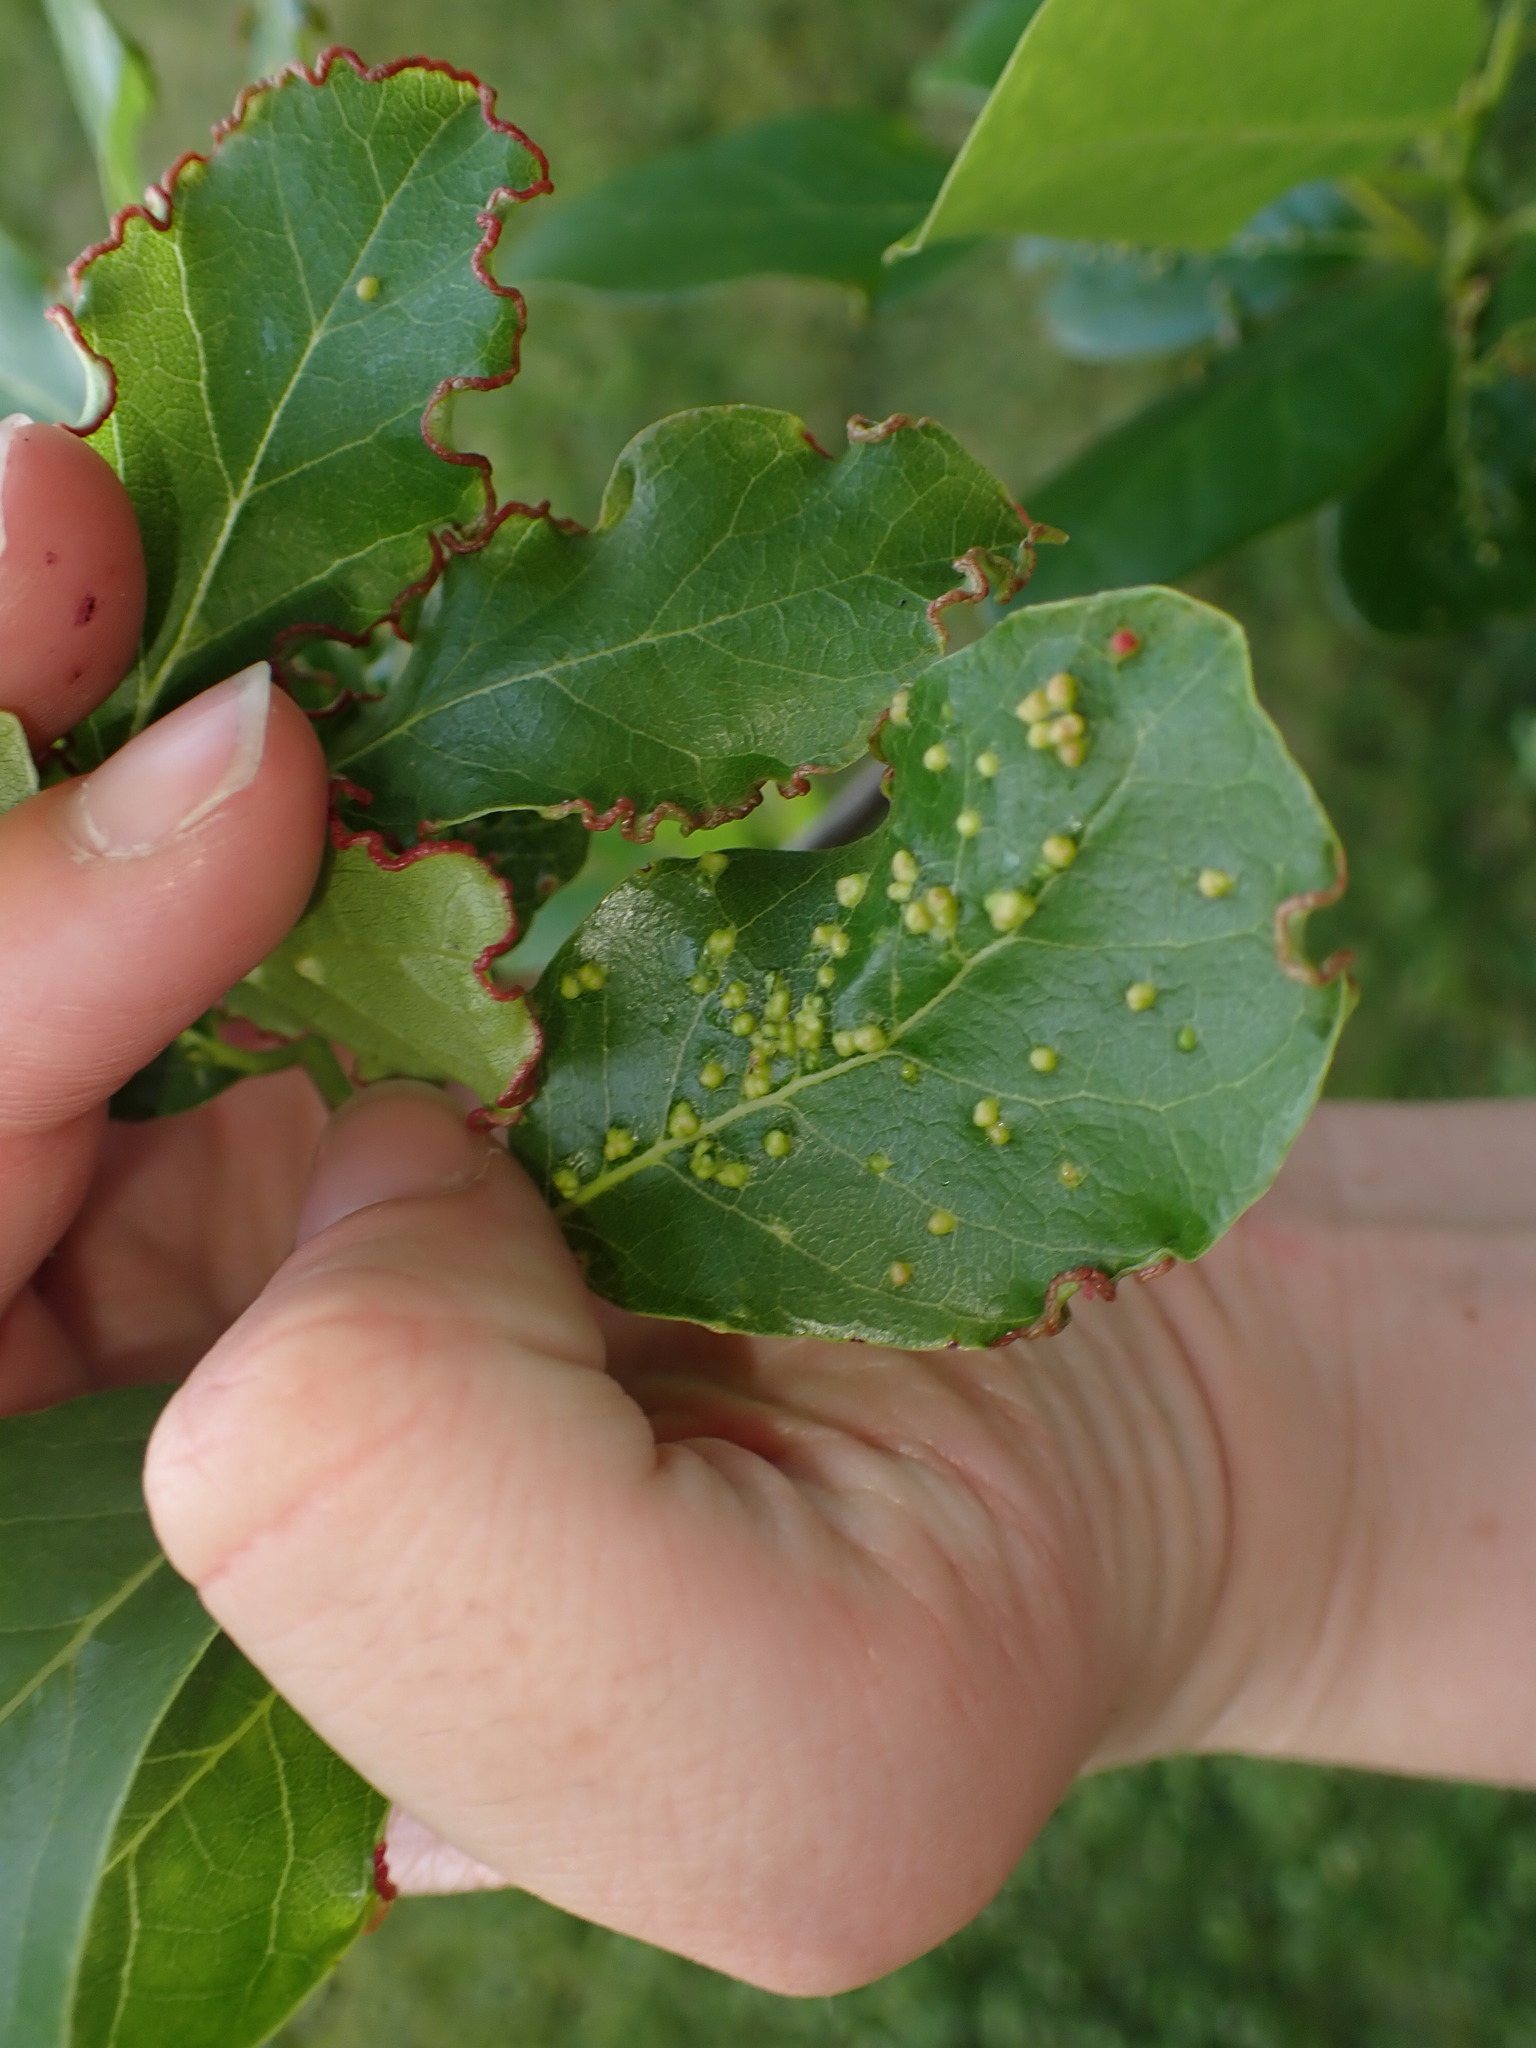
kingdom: Animalia
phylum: Arthropoda
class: Arachnida
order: Trombidiformes
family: Eriophyidae
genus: Aceria
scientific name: Aceria
